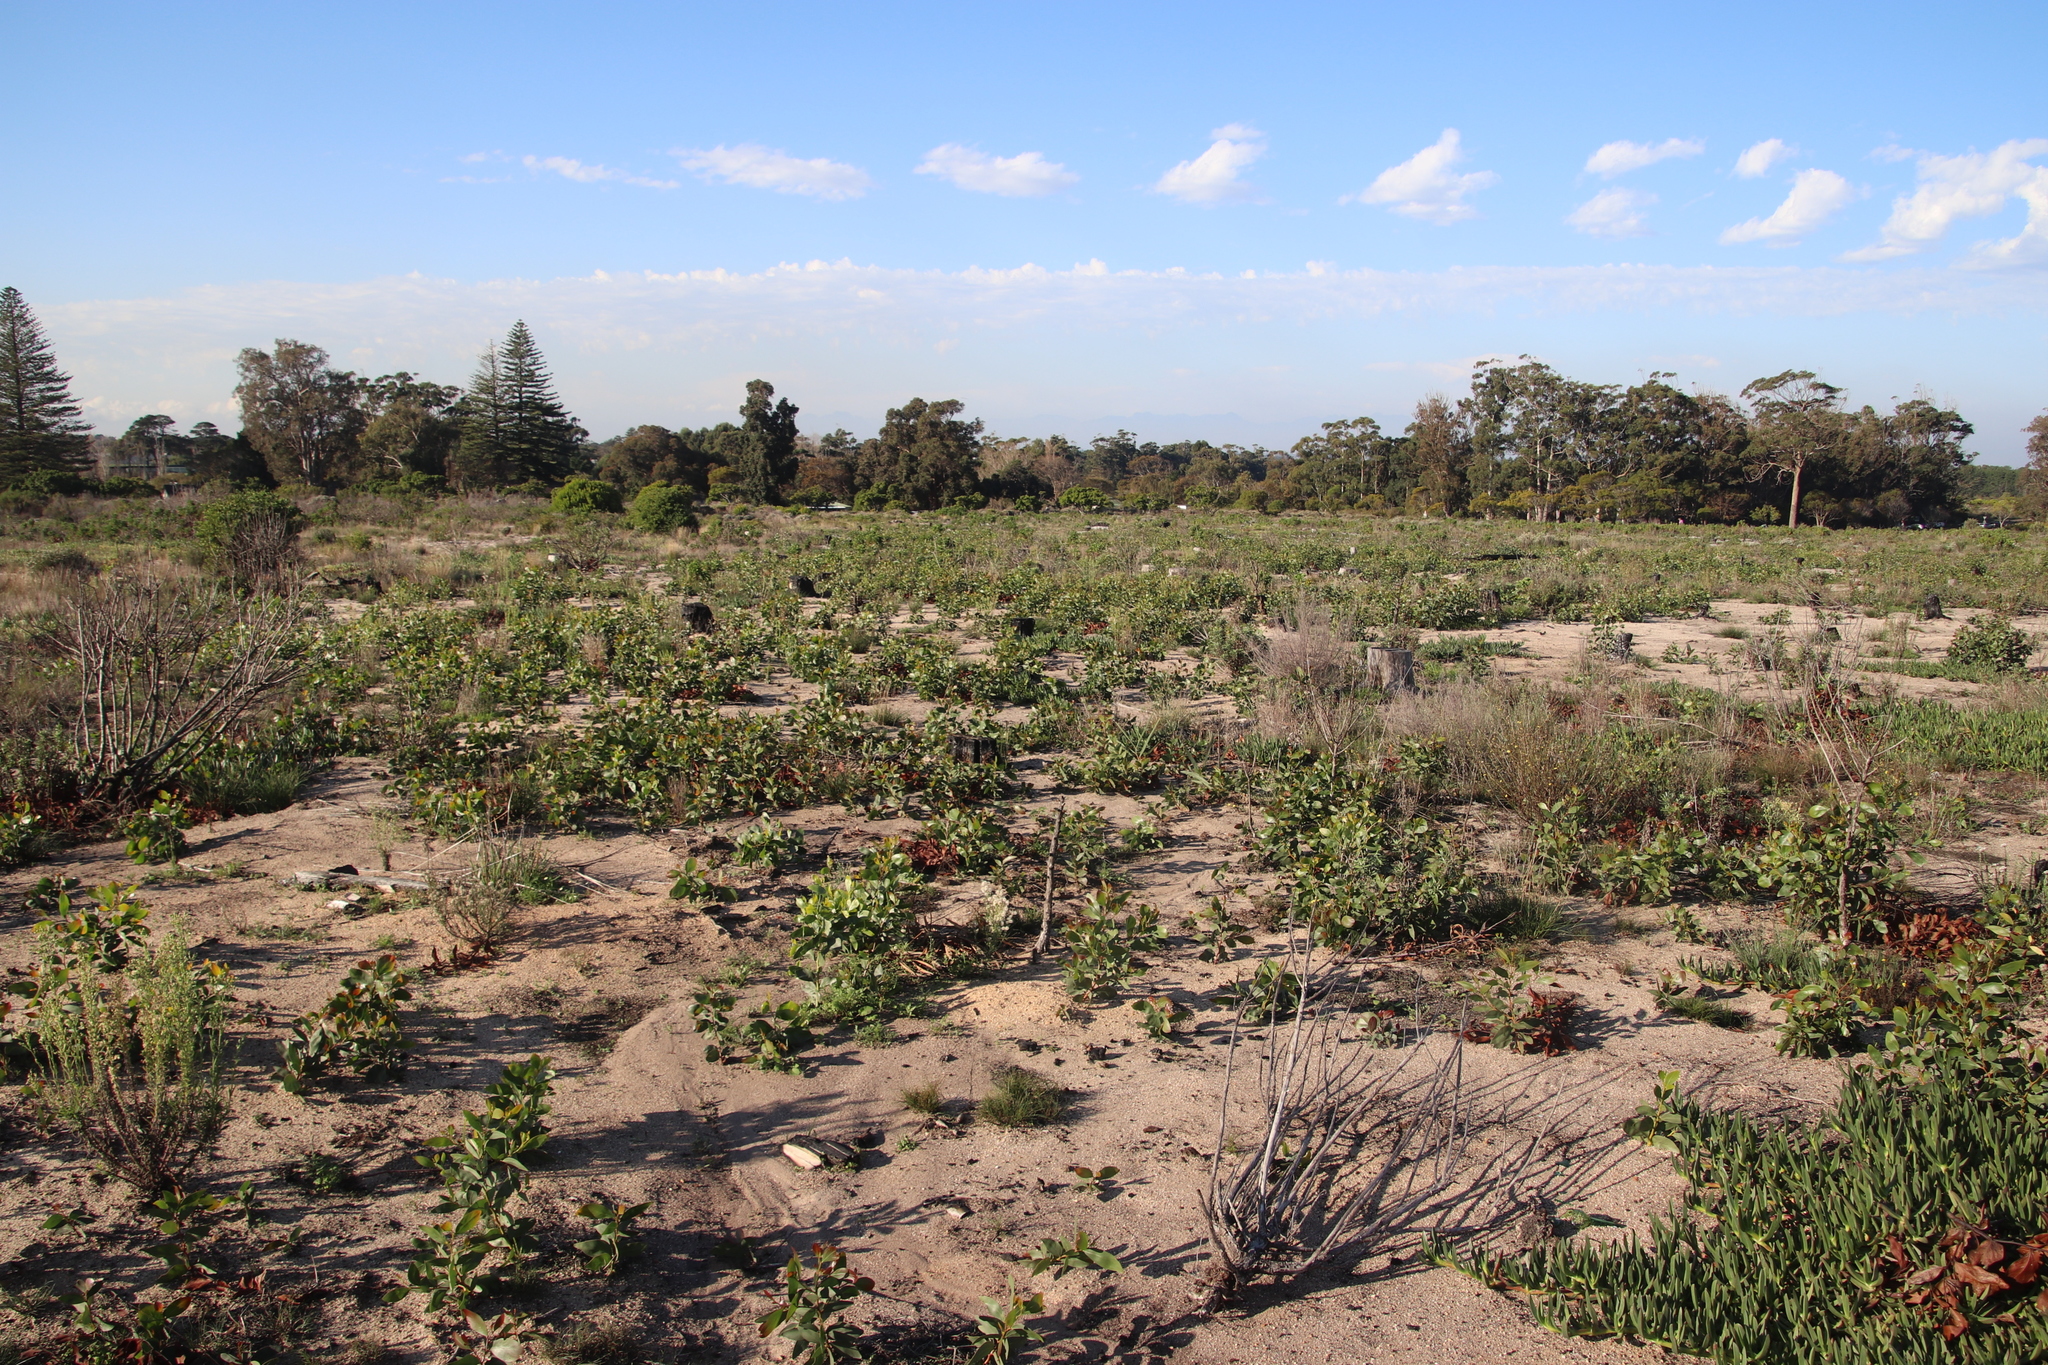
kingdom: Plantae
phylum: Tracheophyta
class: Magnoliopsida
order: Fabales
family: Fabaceae
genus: Acacia
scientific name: Acacia pycnantha
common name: Golden wattle
